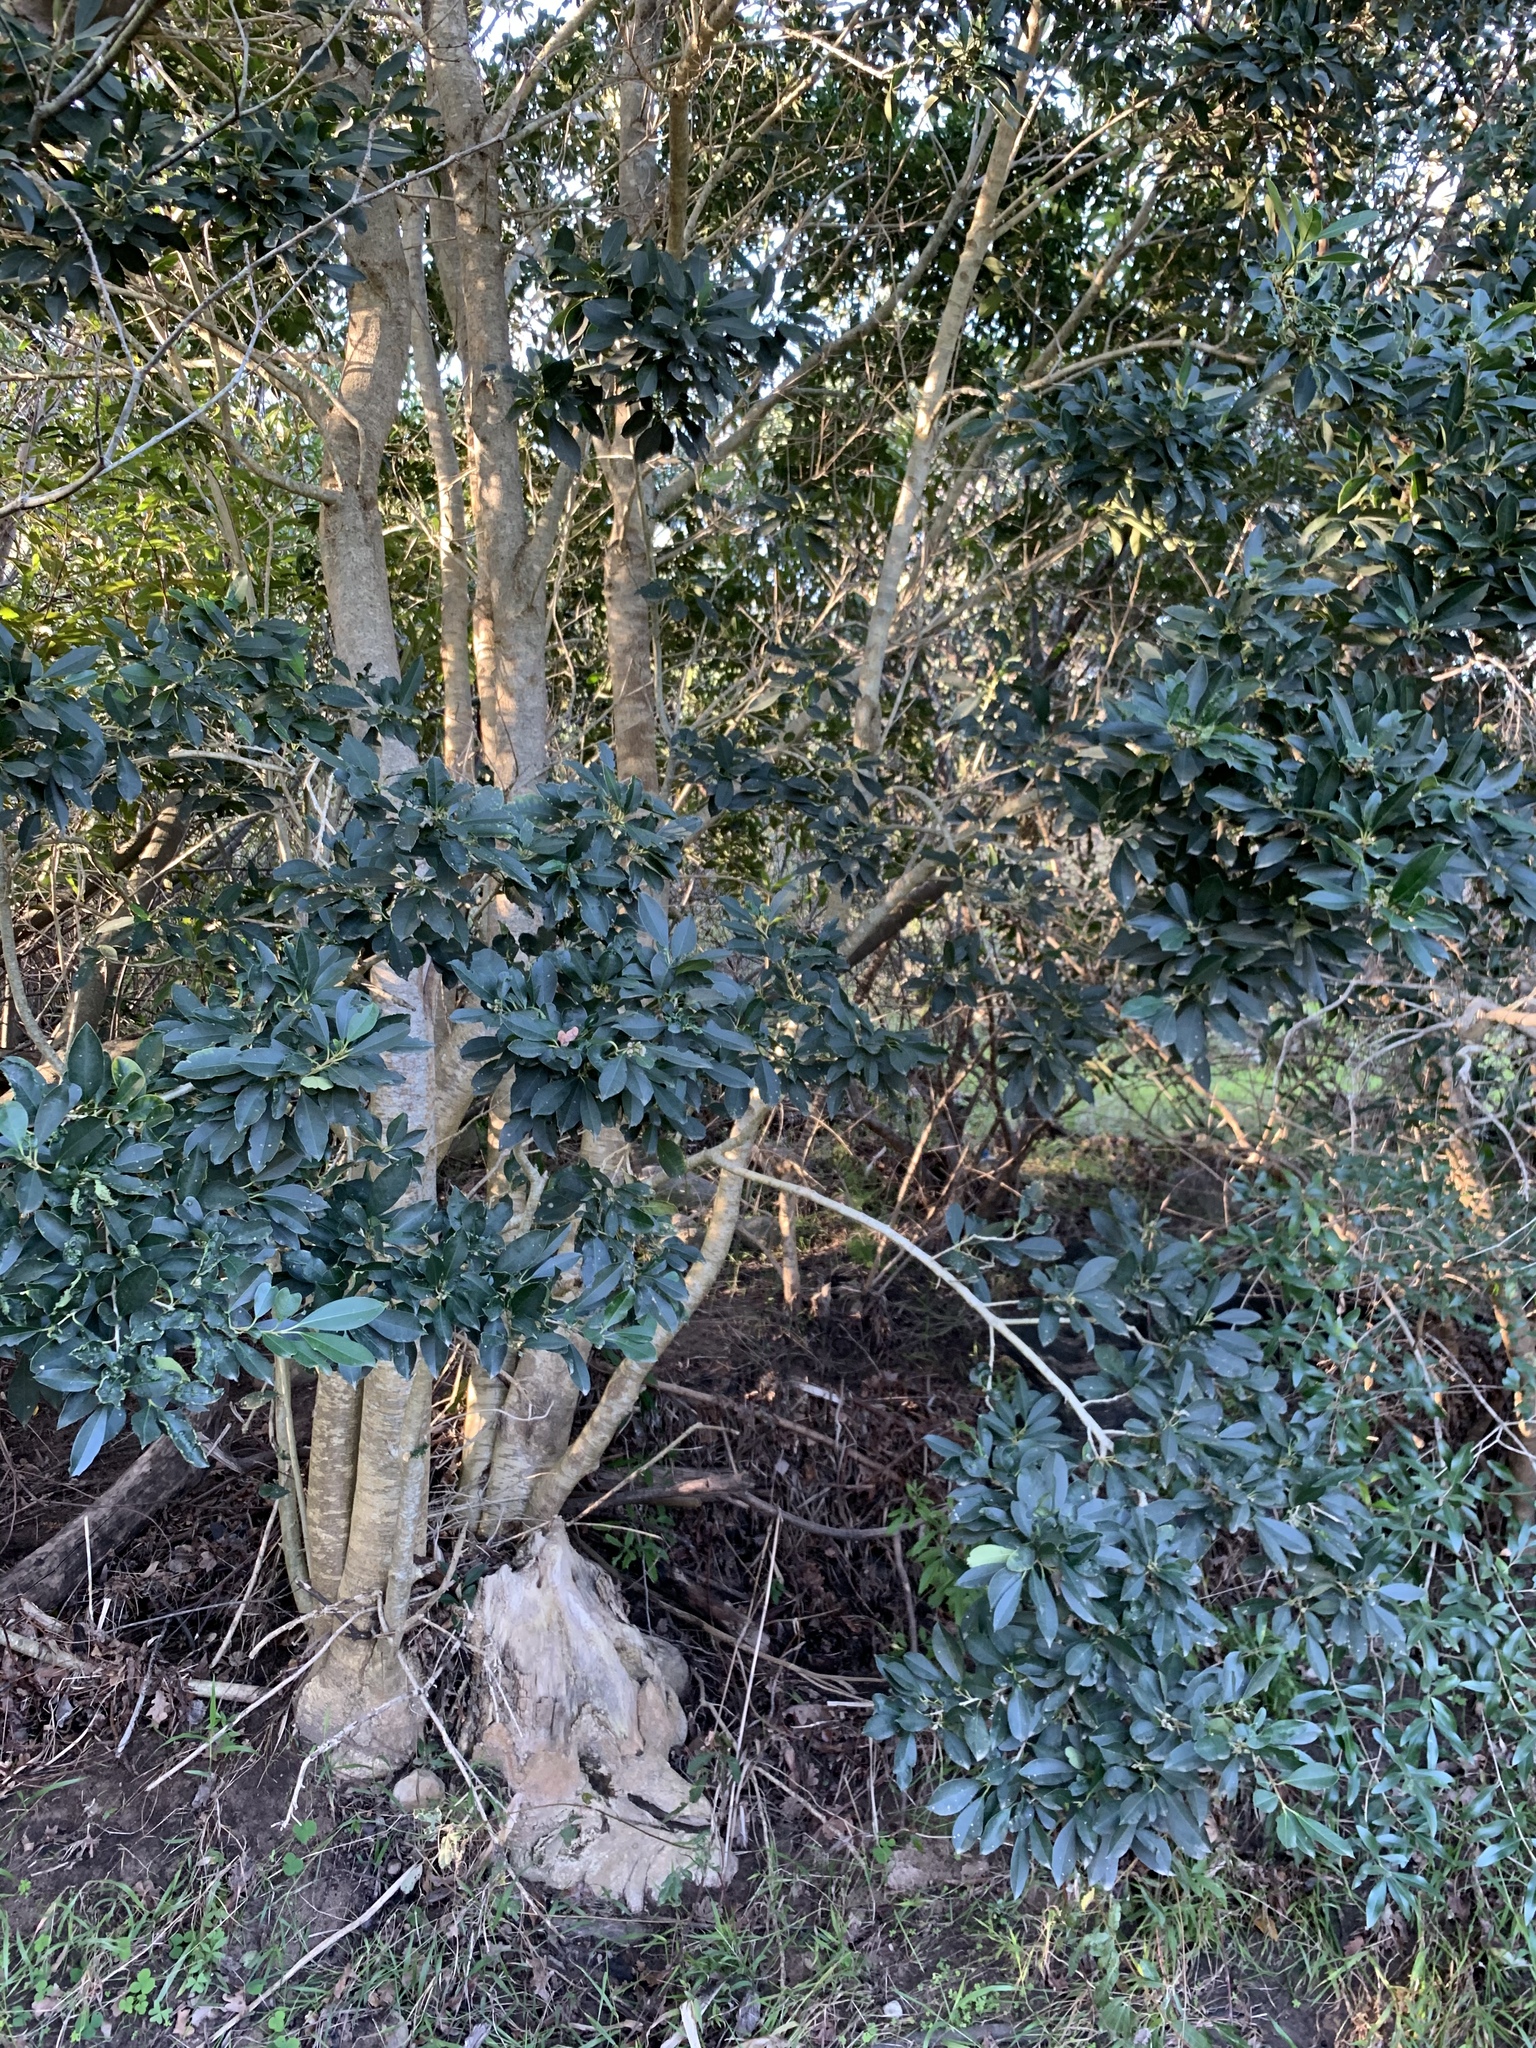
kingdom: Plantae
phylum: Tracheophyta
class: Magnoliopsida
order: Aquifoliales
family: Aquifoliaceae
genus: Ilex
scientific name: Ilex mitis
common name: African holly
